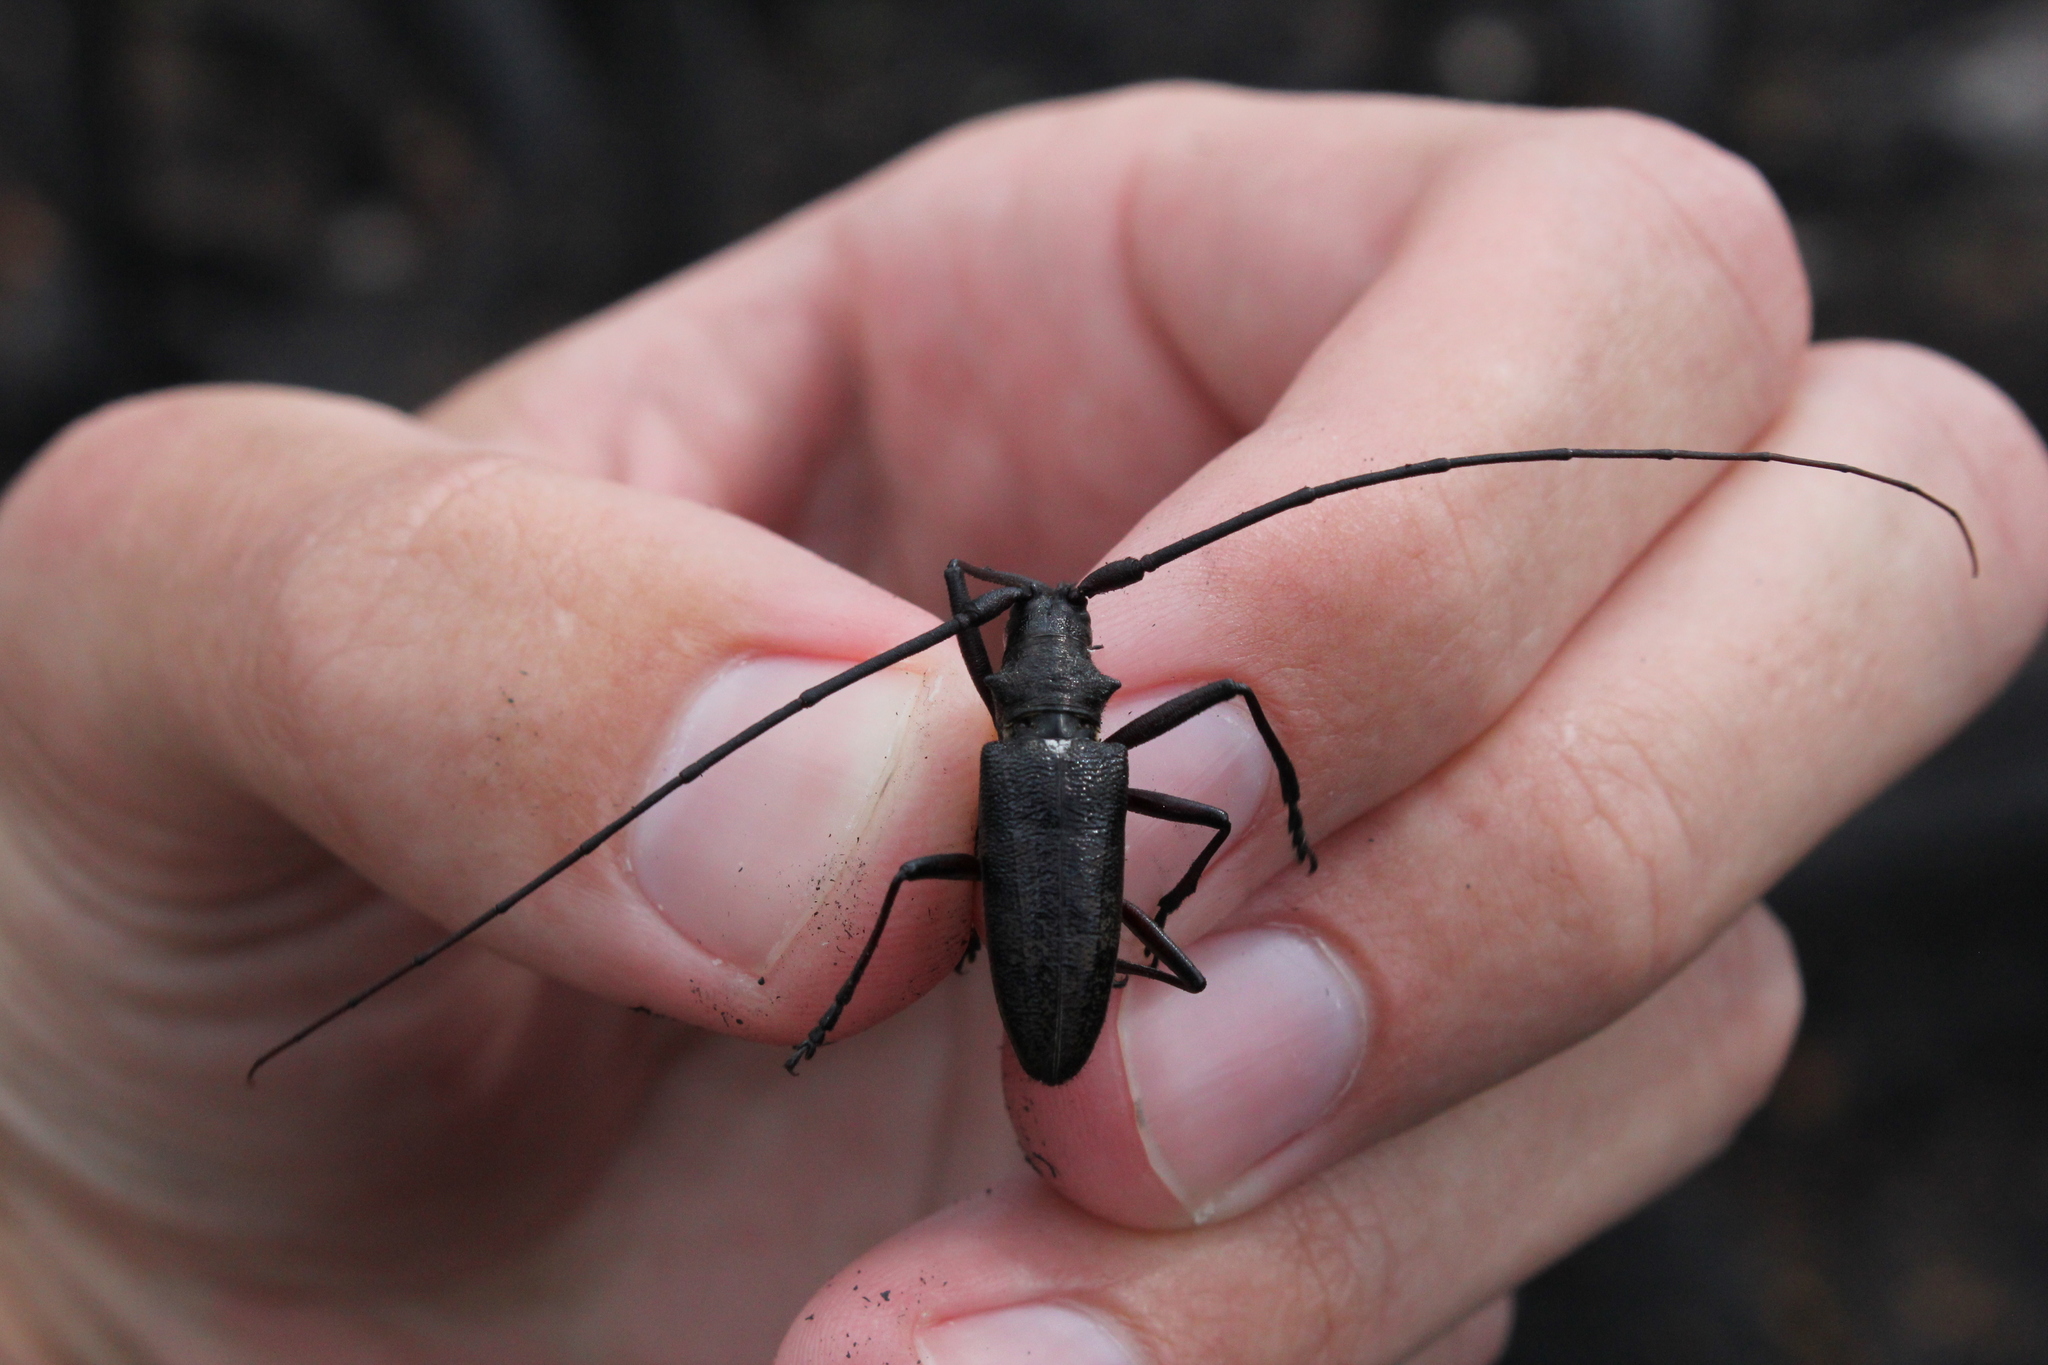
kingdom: Animalia
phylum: Arthropoda
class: Insecta
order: Coleoptera
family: Cerambycidae
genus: Monochamus
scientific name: Monochamus scutellatus
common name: White-spotted sawyer beetle
